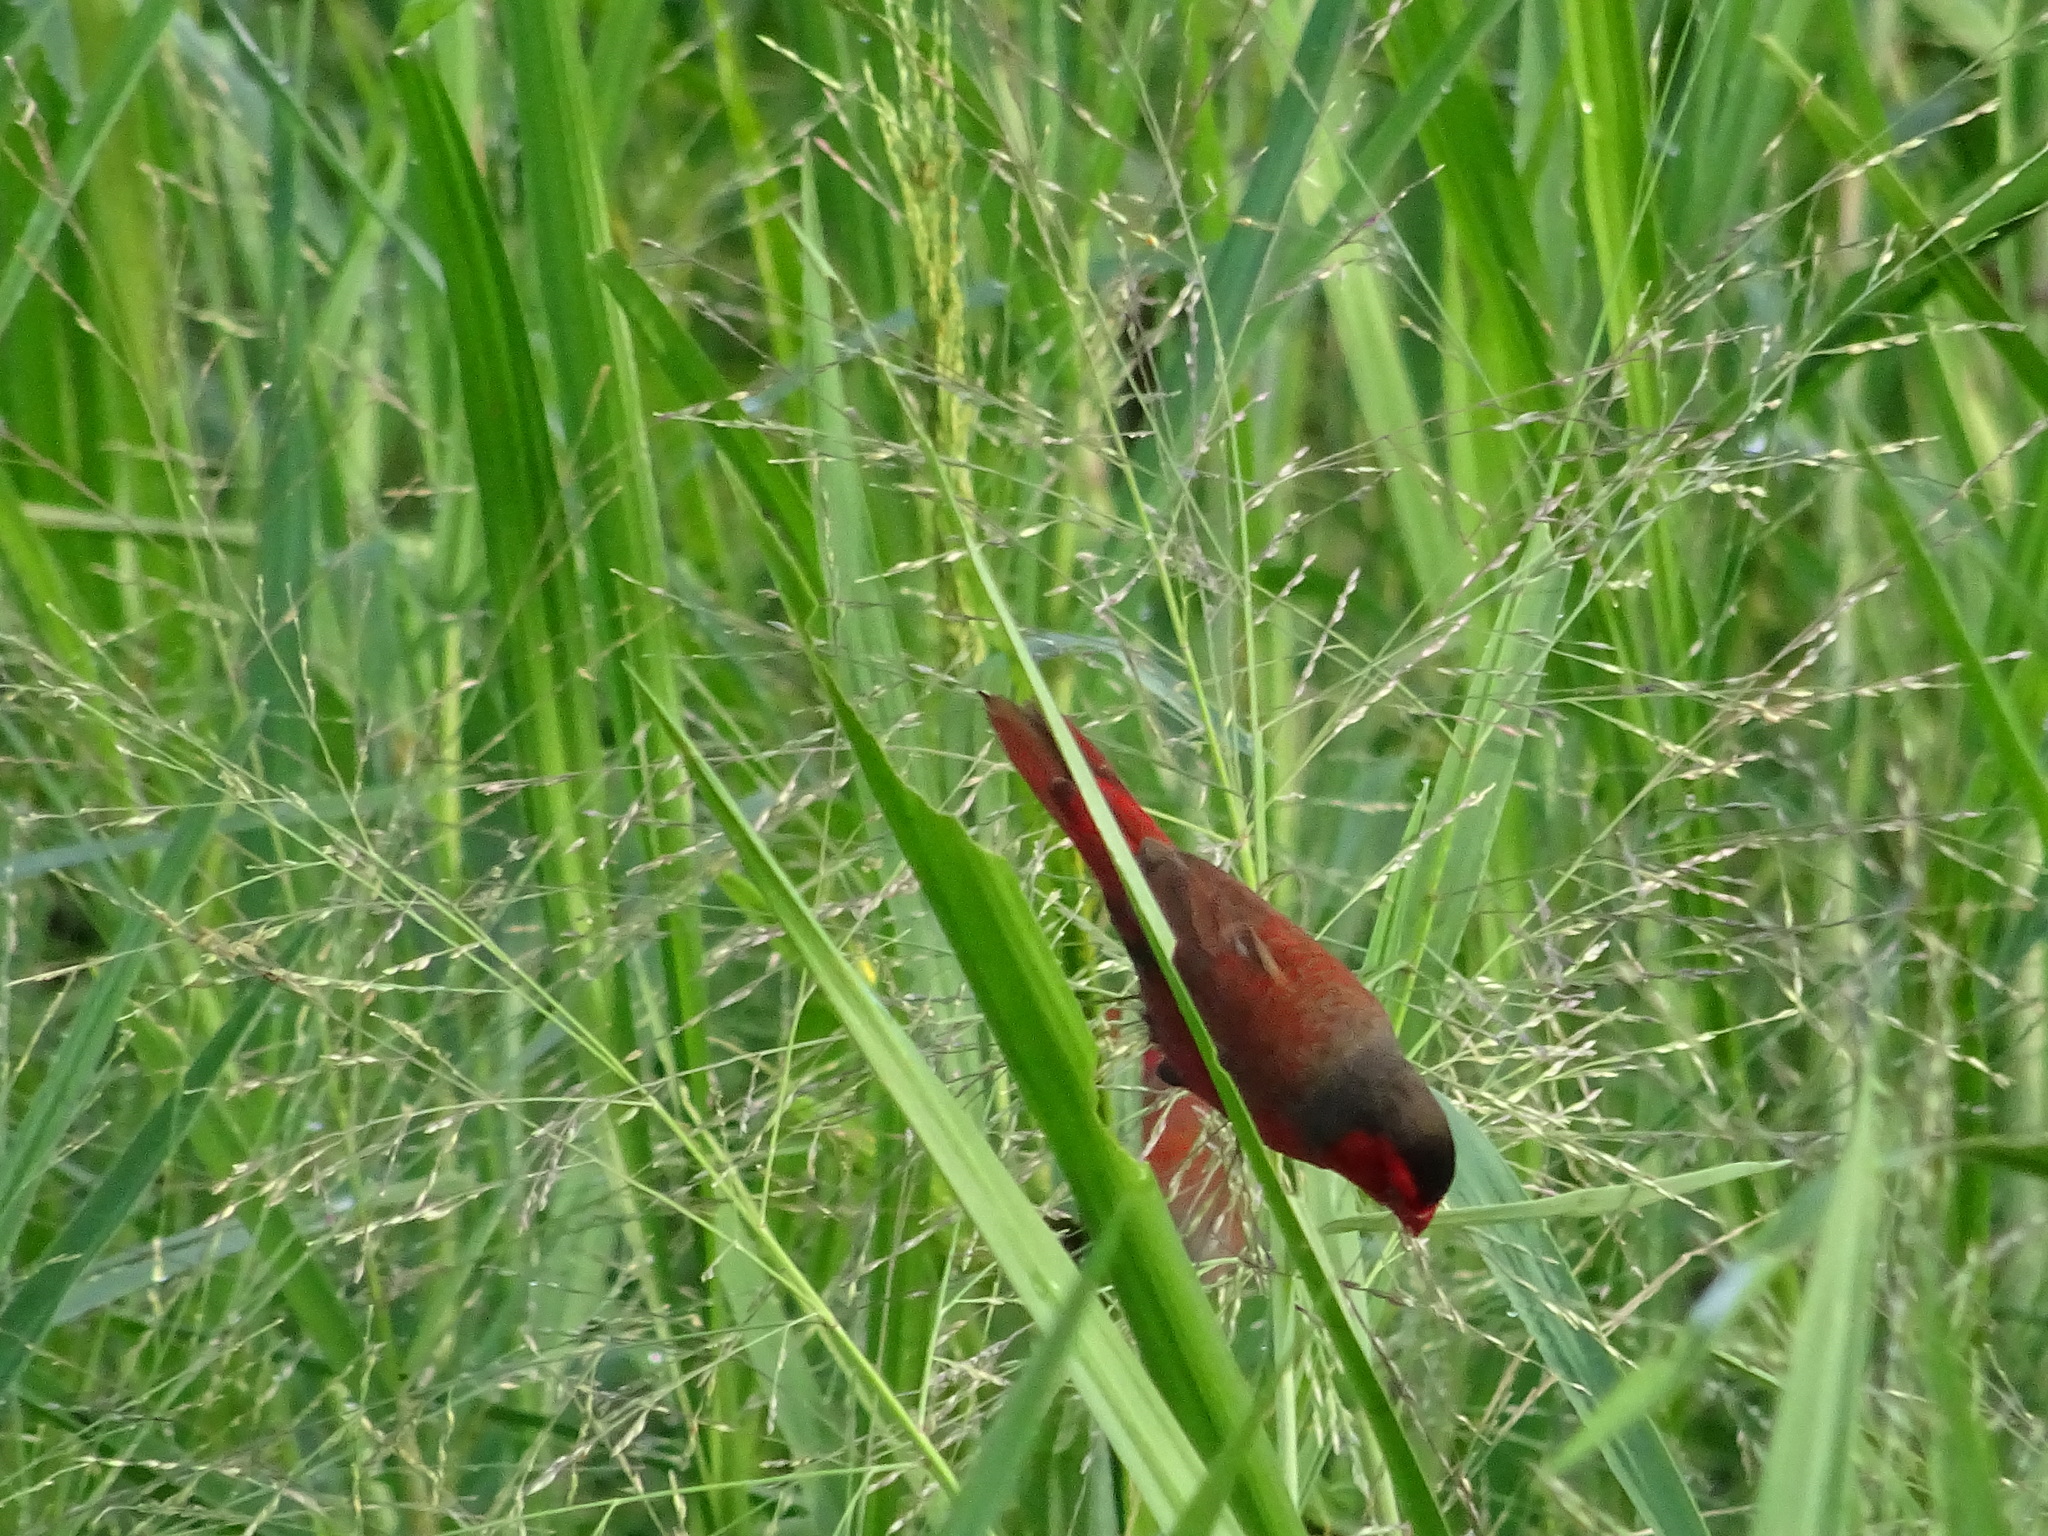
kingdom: Animalia
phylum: Chordata
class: Aves
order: Passeriformes
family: Estrildidae
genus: Neochmia
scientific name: Neochmia phaeton
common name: Crimson finch
